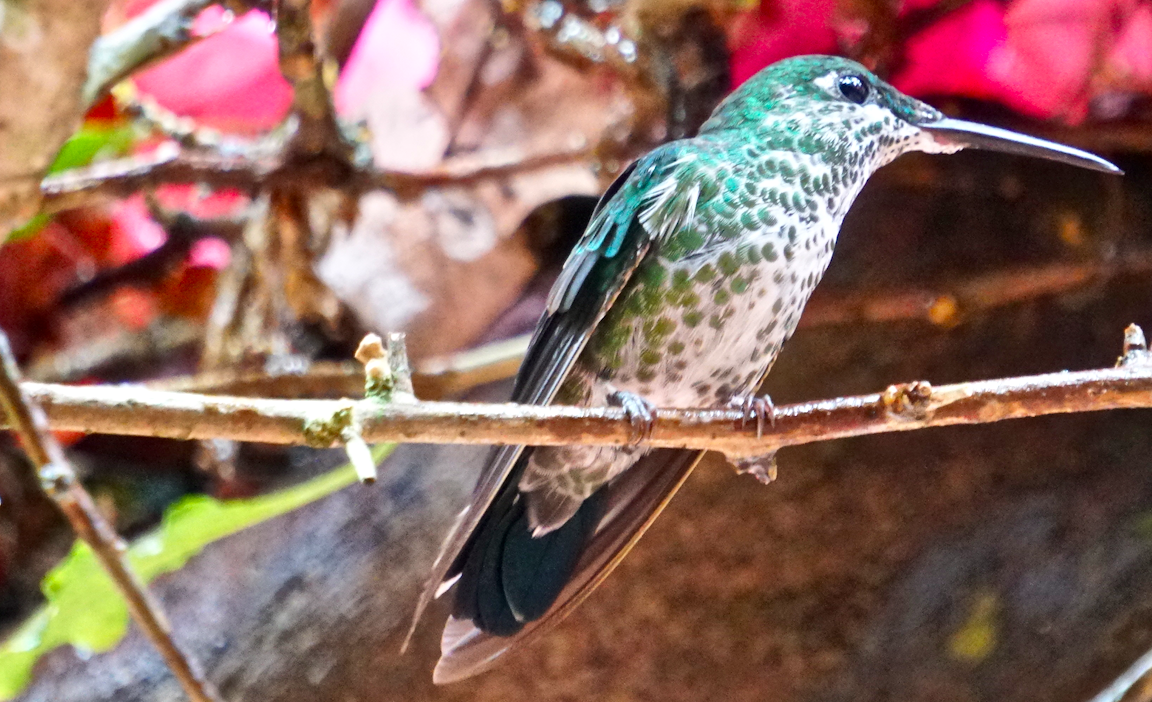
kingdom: Animalia
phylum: Chordata
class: Aves
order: Apodiformes
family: Trochilidae
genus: Heliodoxa
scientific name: Heliodoxa jacula
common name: Green-crowned brilliant
